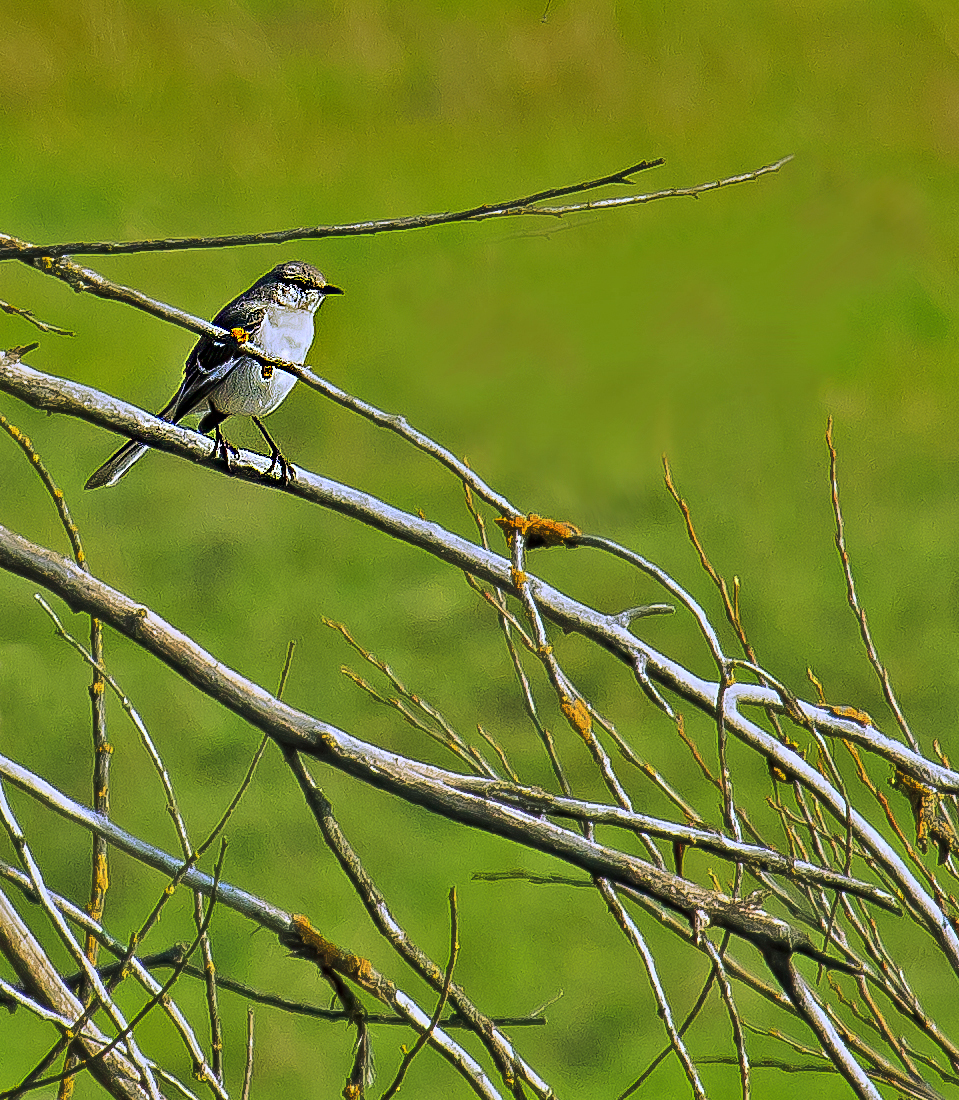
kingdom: Animalia
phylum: Chordata
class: Aves
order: Passeriformes
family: Mimidae
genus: Mimus
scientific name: Mimus polyglottos
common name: Northern mockingbird
